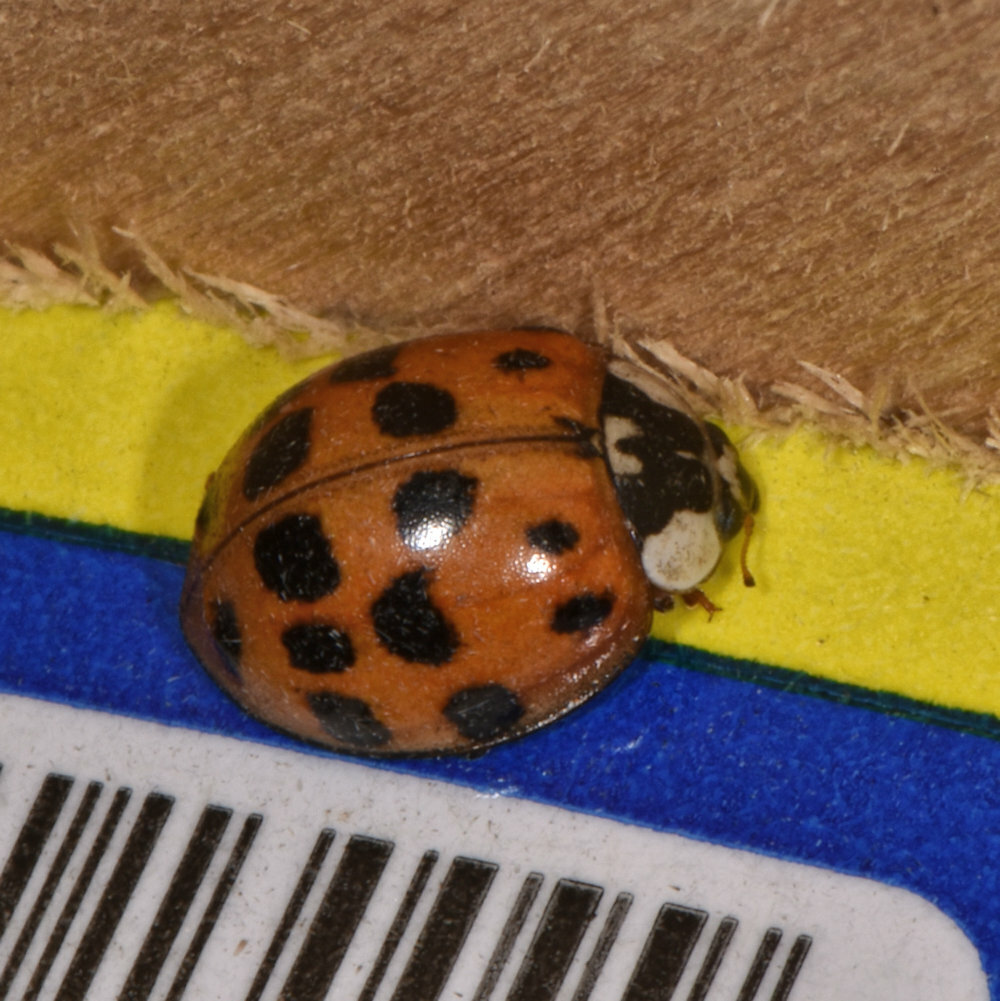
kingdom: Animalia
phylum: Arthropoda
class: Insecta
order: Coleoptera
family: Coccinellidae
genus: Harmonia
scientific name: Harmonia axyridis
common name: Harlequin ladybird
